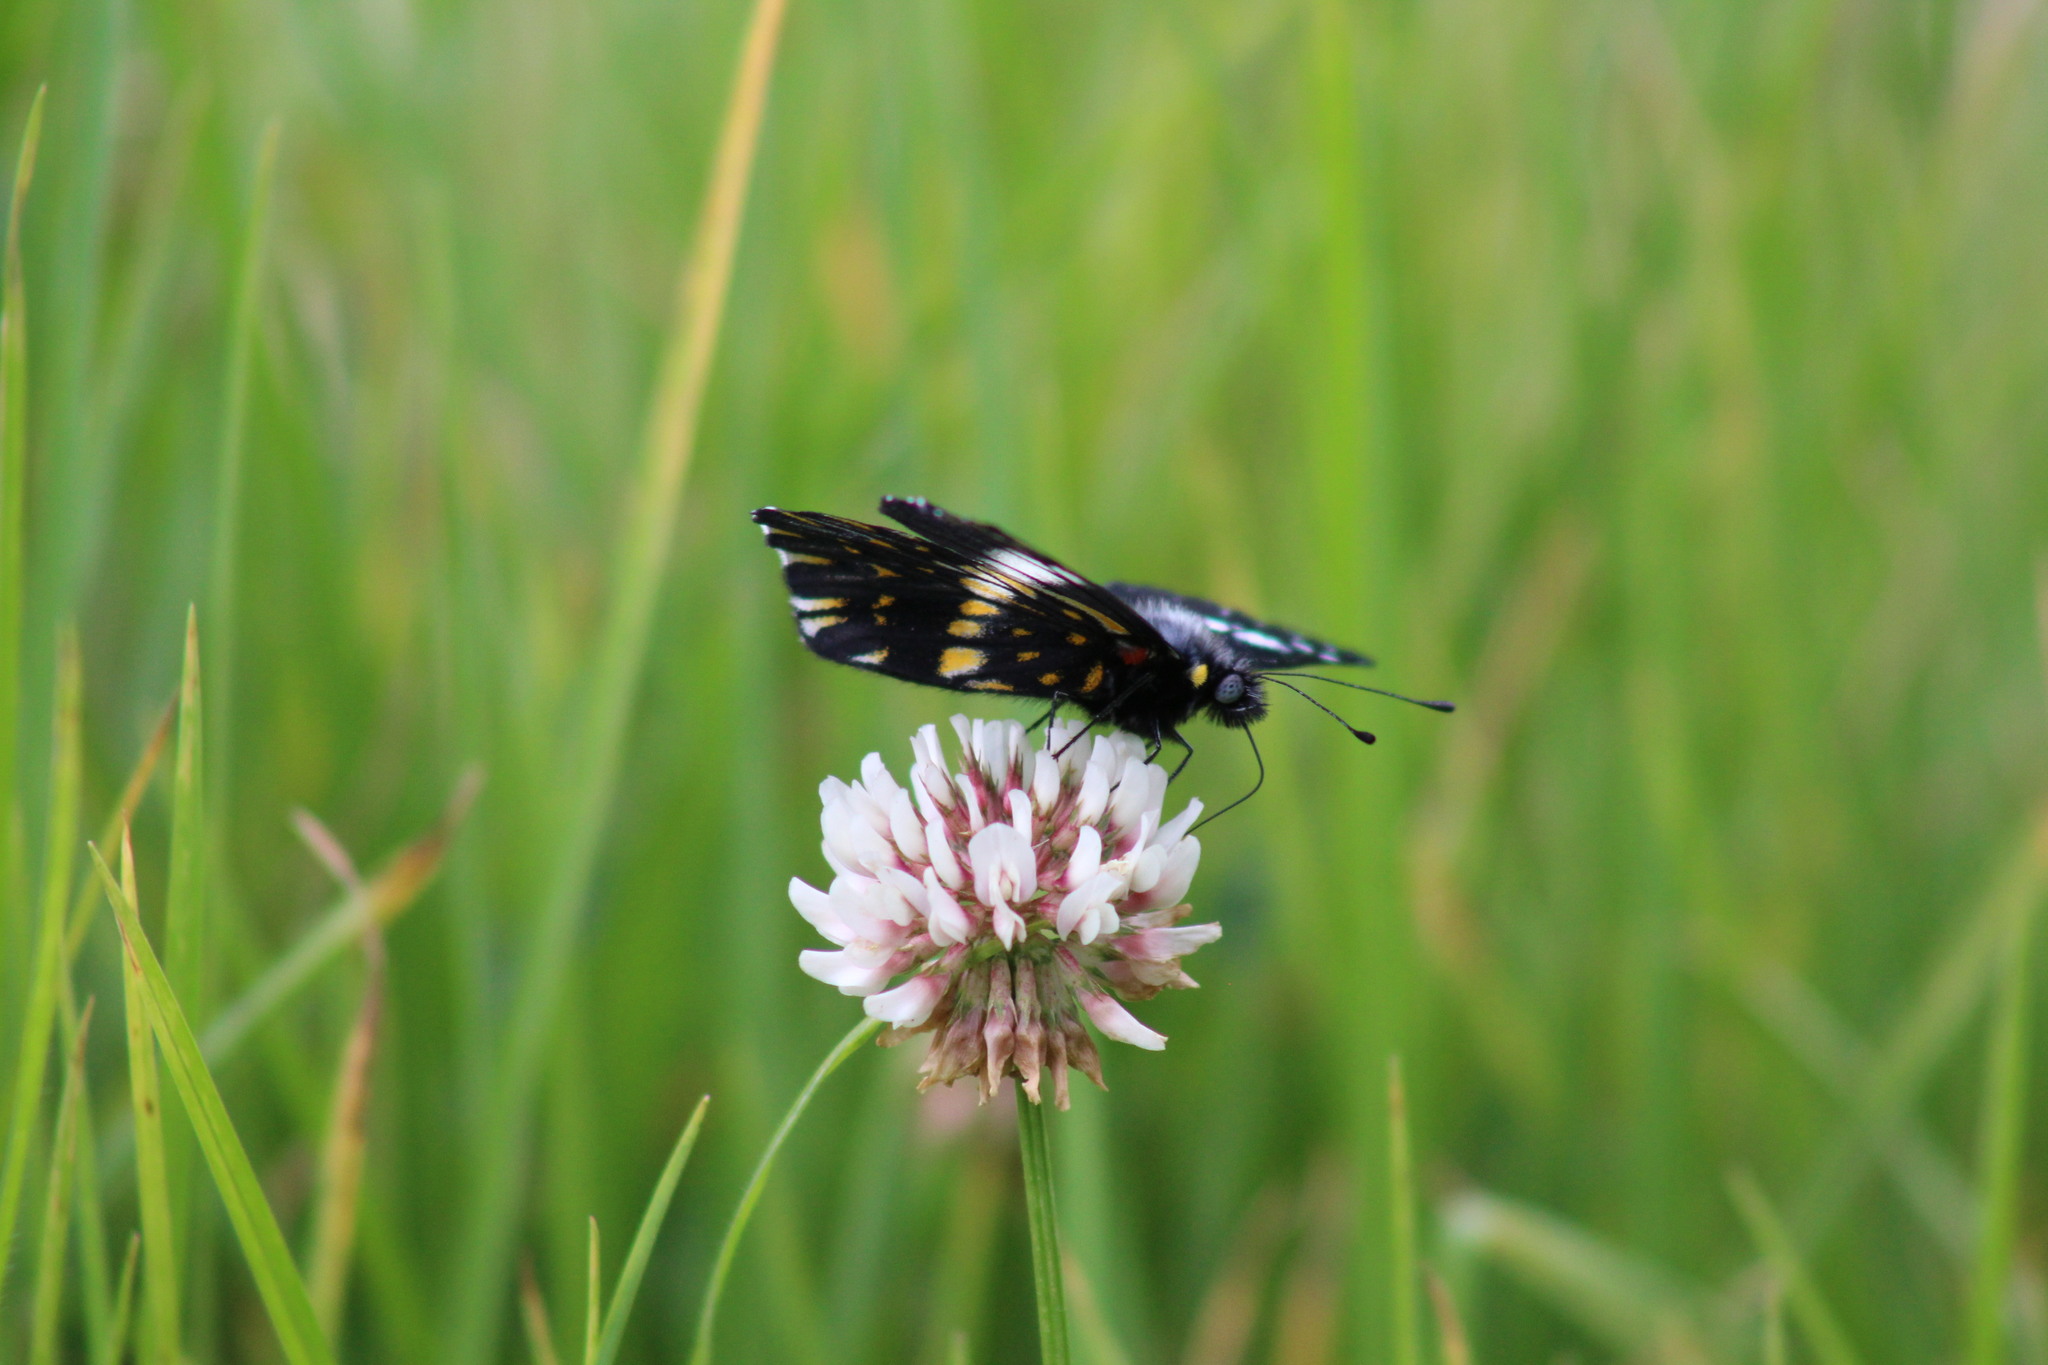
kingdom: Animalia
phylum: Arthropoda
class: Insecta
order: Lepidoptera
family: Pieridae
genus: Archonias
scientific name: Archonias teutila
